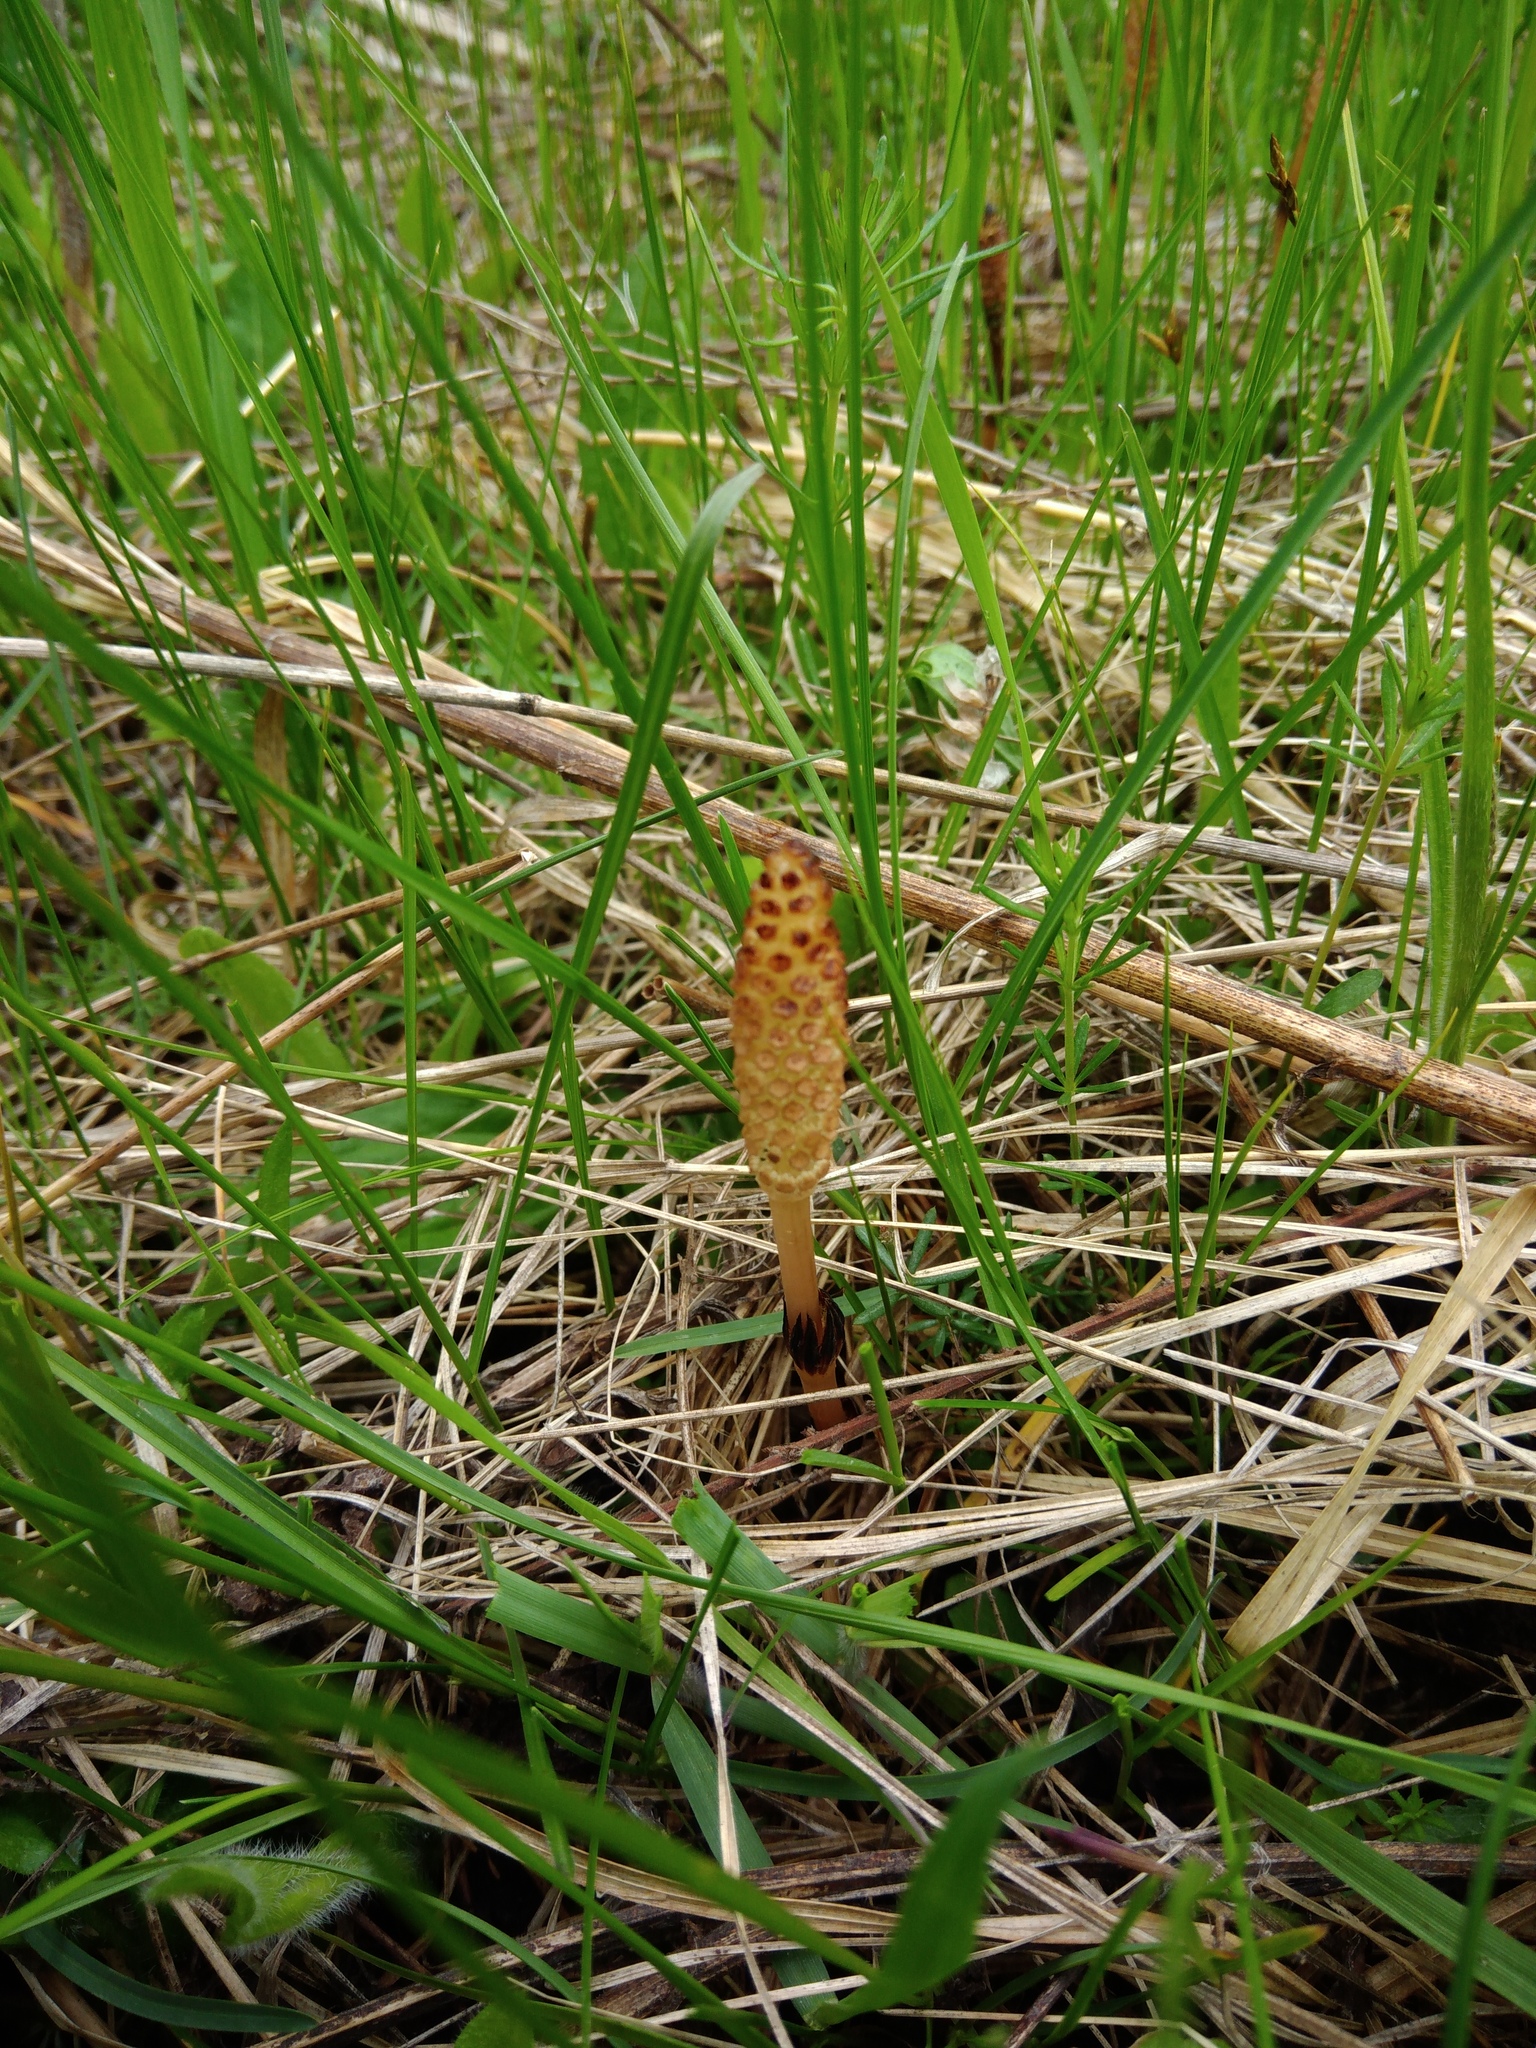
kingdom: Plantae
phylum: Tracheophyta
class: Polypodiopsida
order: Equisetales
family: Equisetaceae
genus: Equisetum
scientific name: Equisetum arvense
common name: Field horsetail
